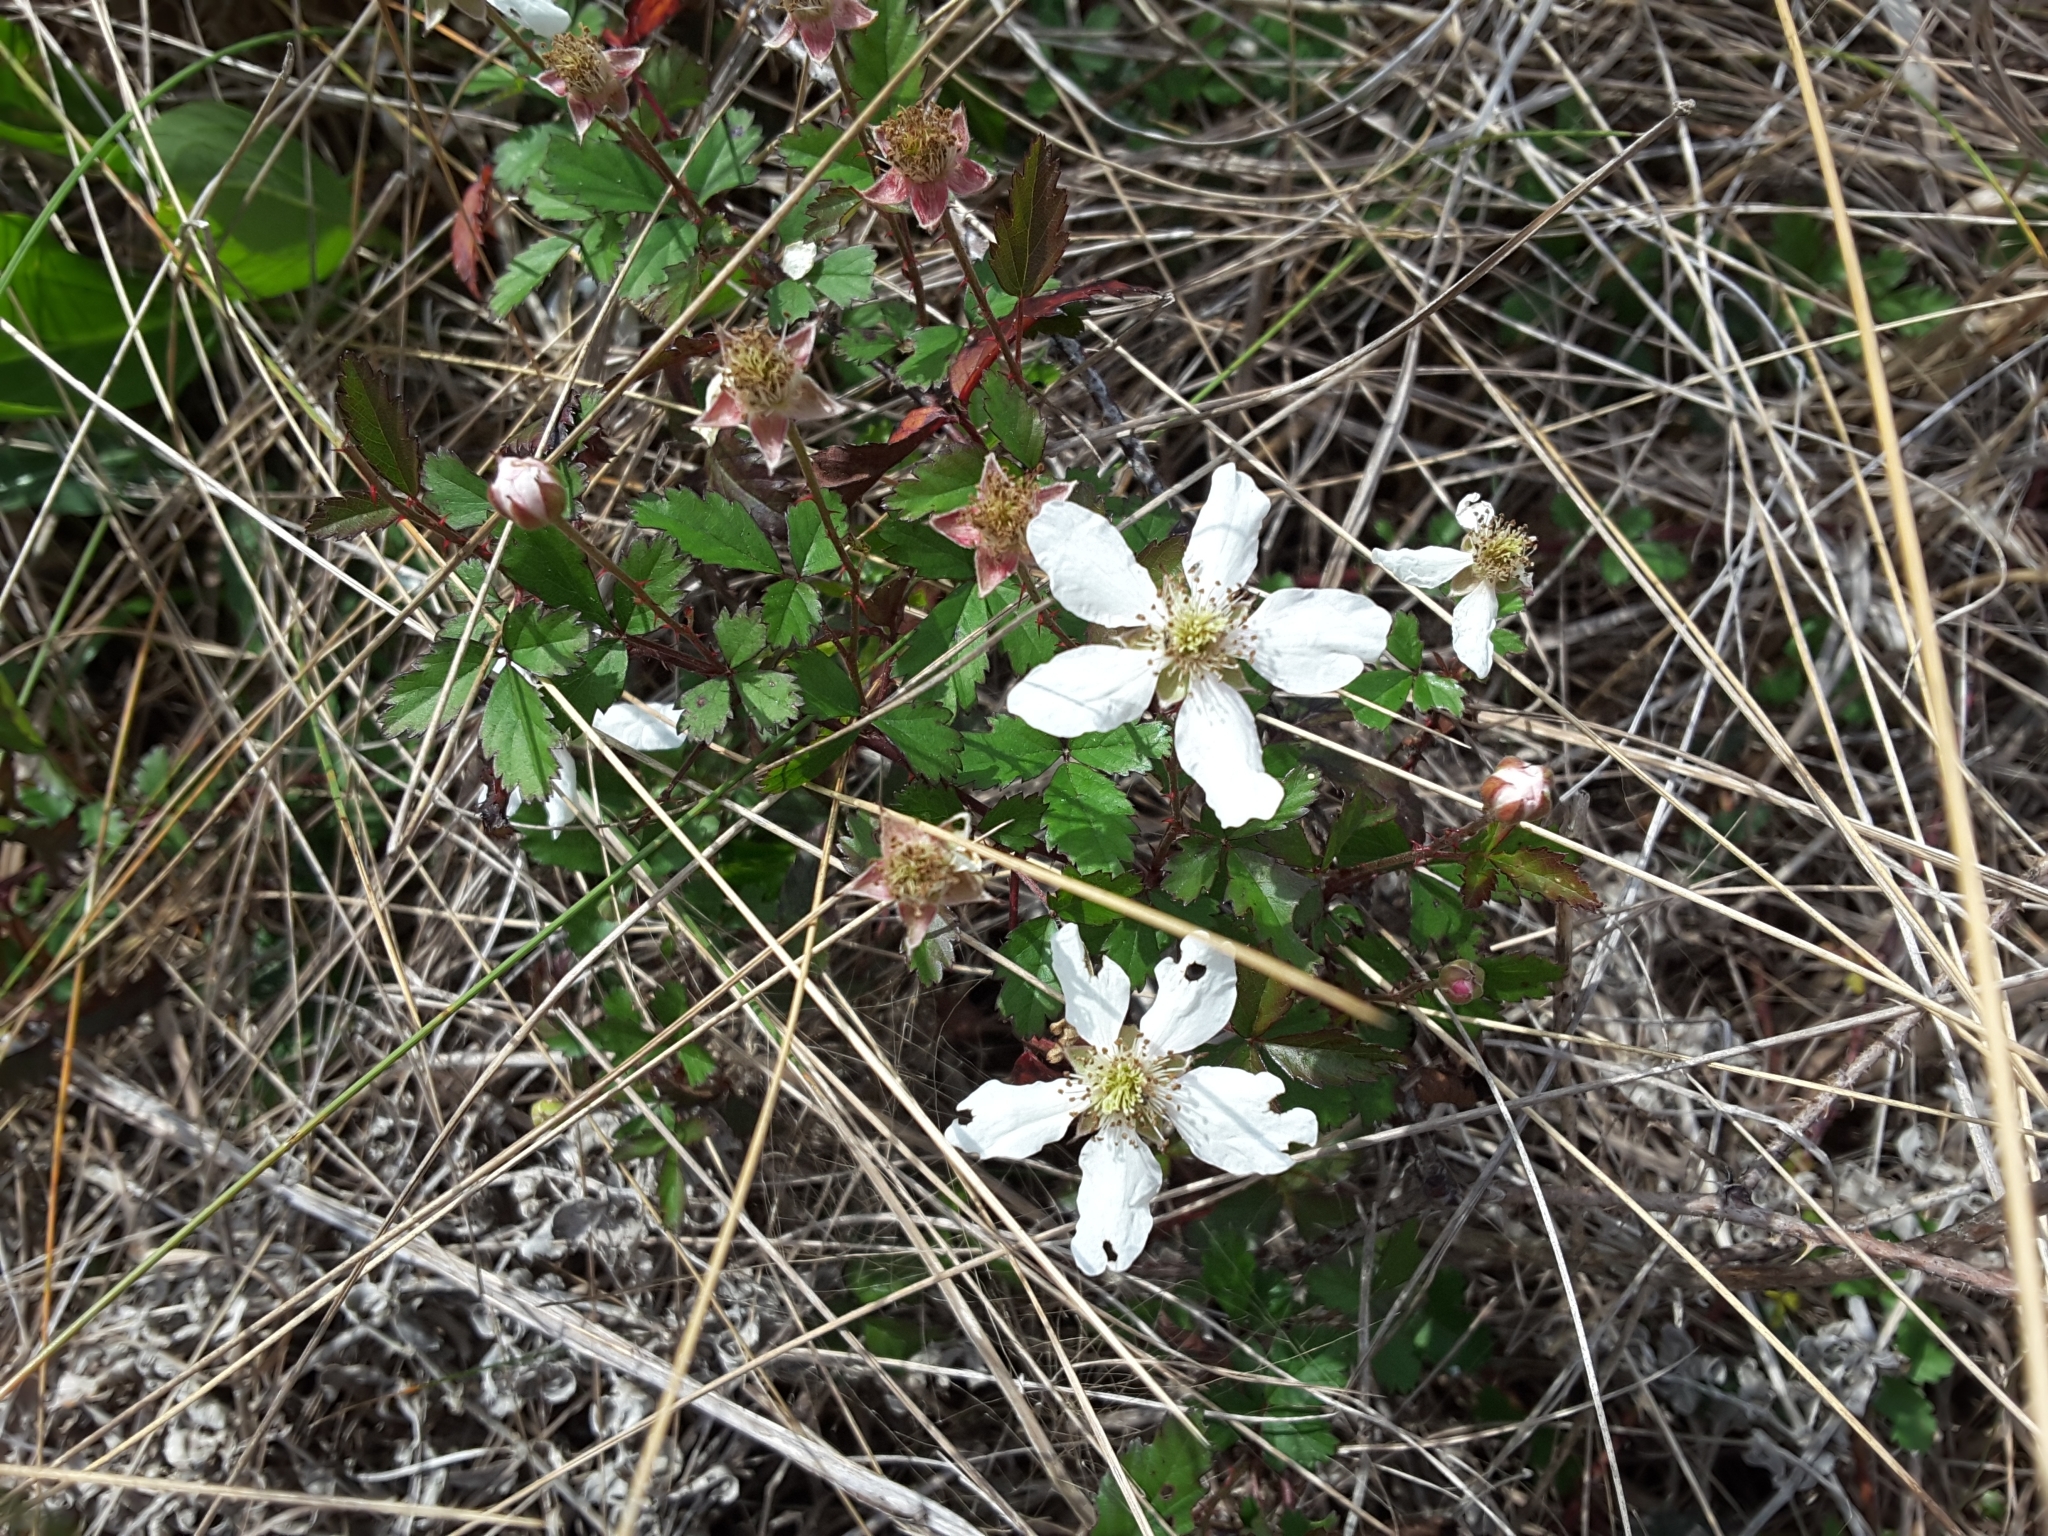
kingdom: Plantae
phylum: Tracheophyta
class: Magnoliopsida
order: Rosales
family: Rosaceae
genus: Rubus
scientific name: Rubus trivialis
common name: Southern dewberry
